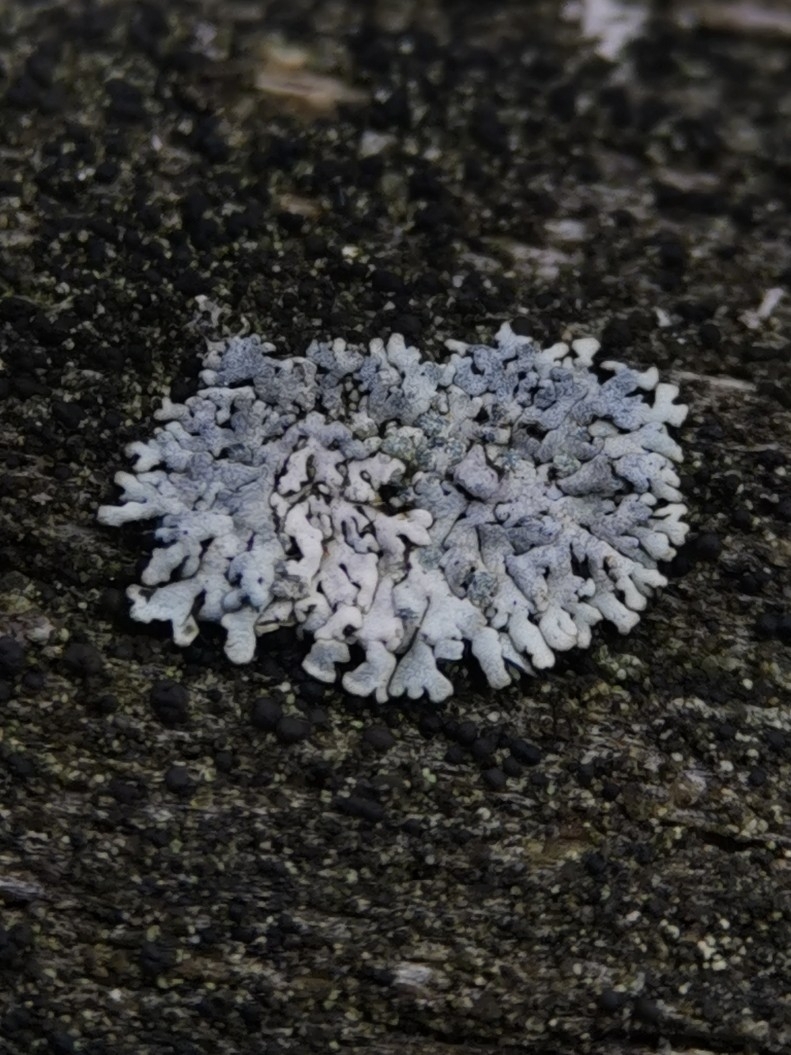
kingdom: Fungi
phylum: Ascomycota
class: Lecanoromycetes
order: Caliciales
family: Physciaceae
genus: Physcia
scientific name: Physcia caesia
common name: Blue-gray rosette lichen
